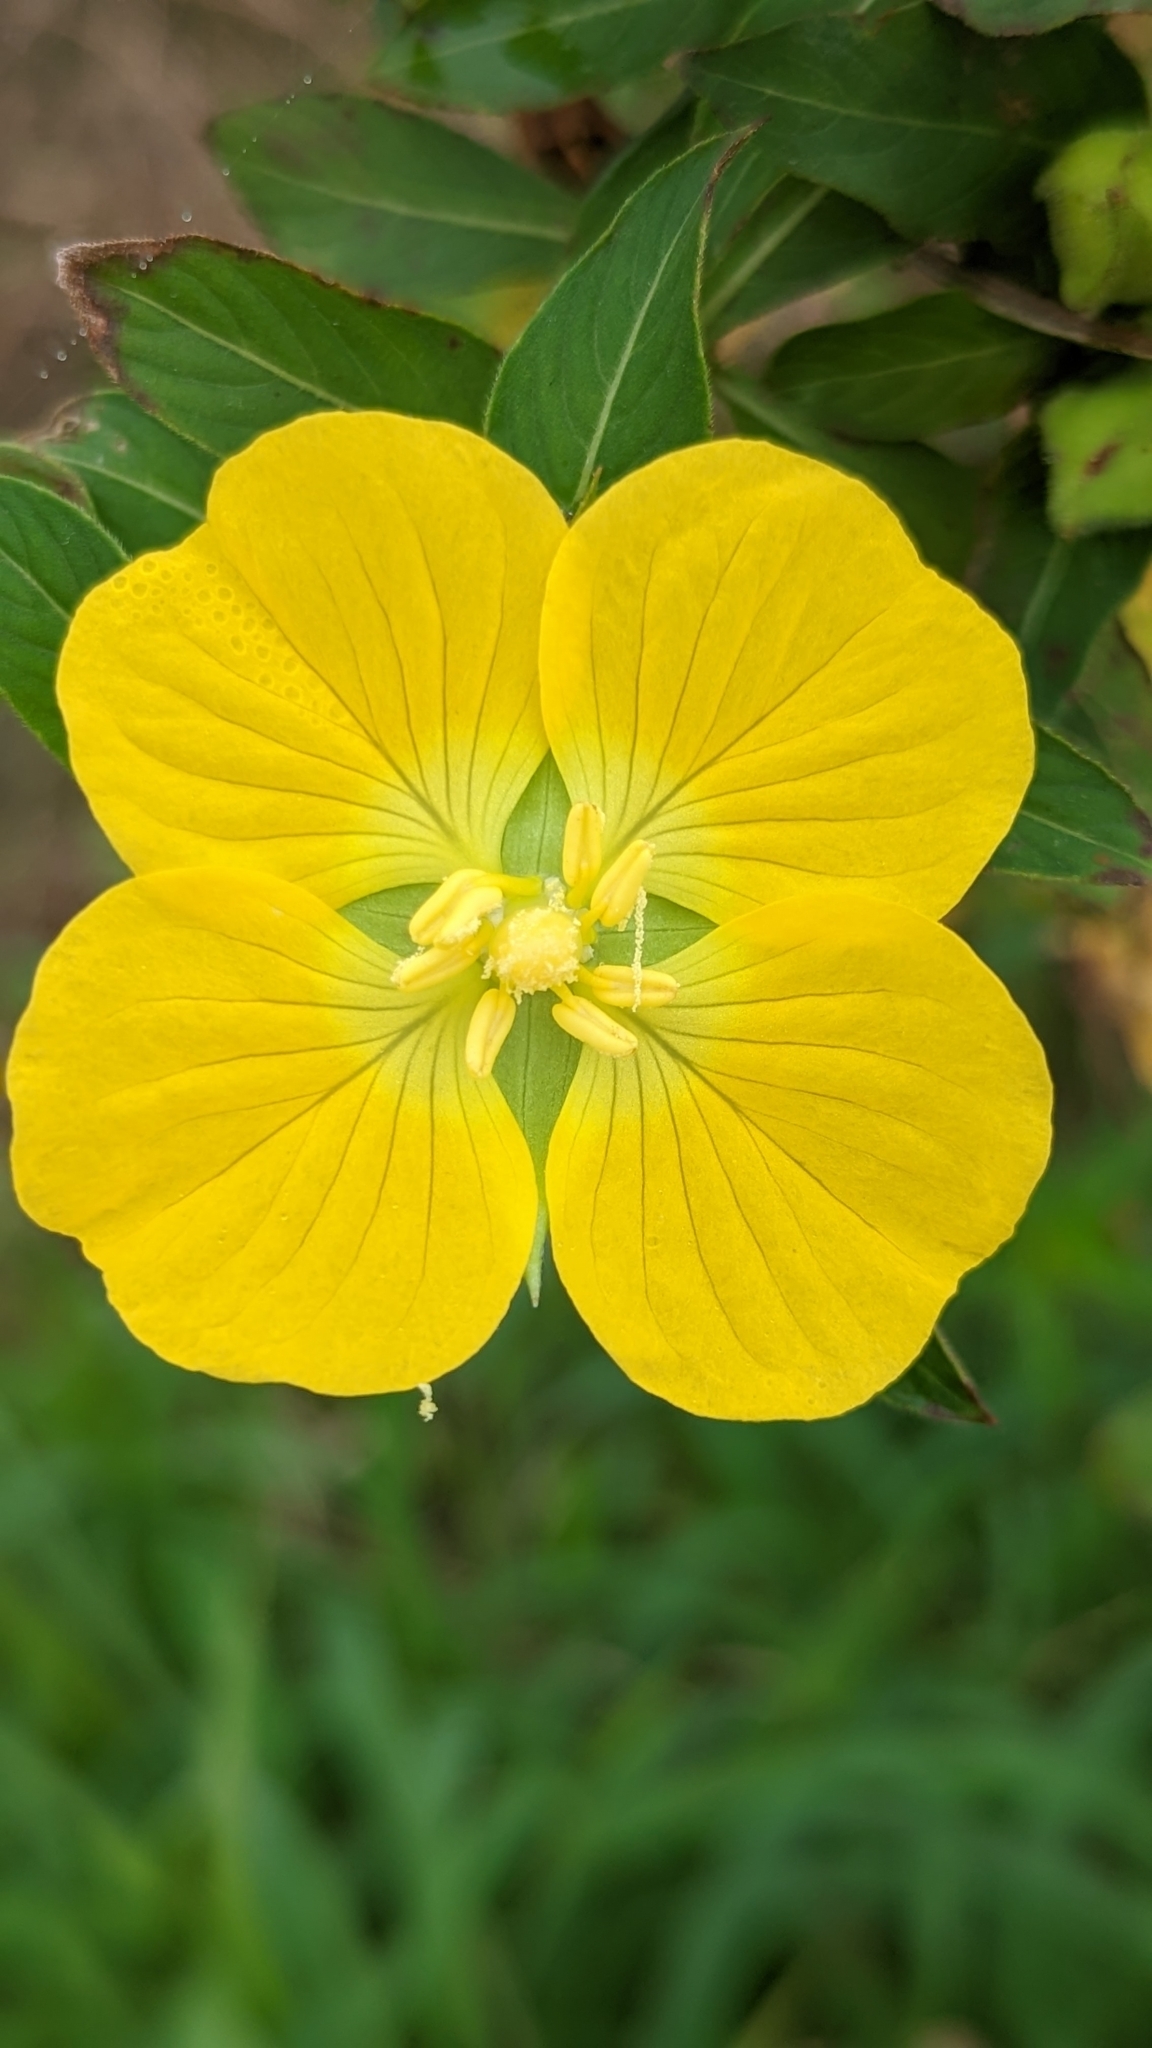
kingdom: Plantae
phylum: Tracheophyta
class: Magnoliopsida
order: Myrtales
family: Onagraceae
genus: Ludwigia
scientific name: Ludwigia peruviana
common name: Peruvian primrose-willow
